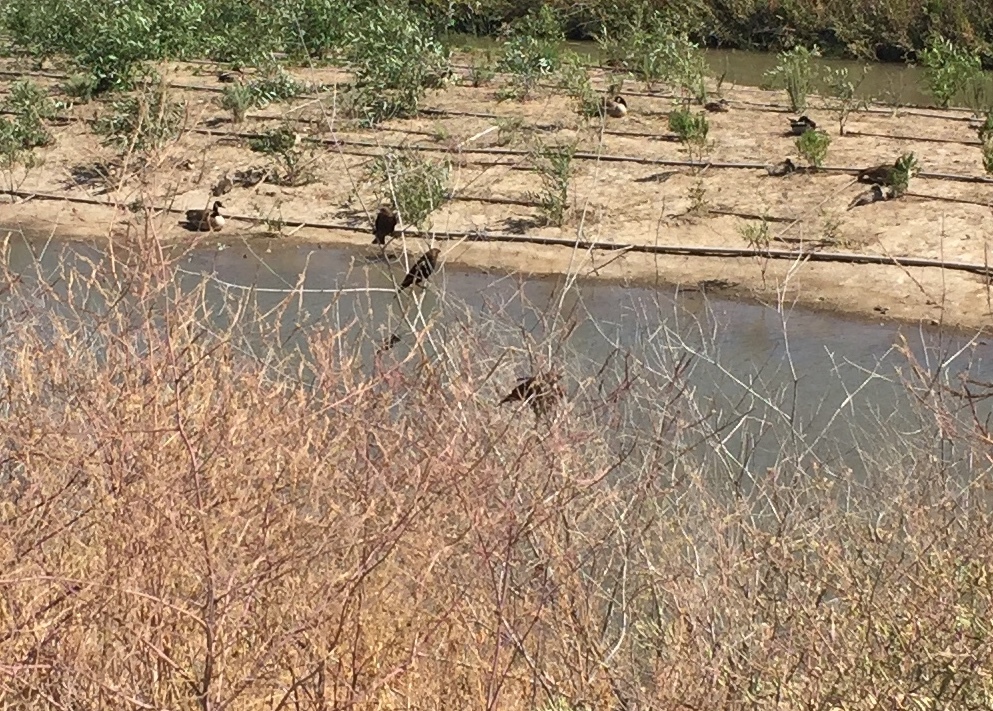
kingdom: Animalia
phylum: Chordata
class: Aves
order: Passeriformes
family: Icteridae
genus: Molothrus
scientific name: Molothrus ater
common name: Brown-headed cowbird
